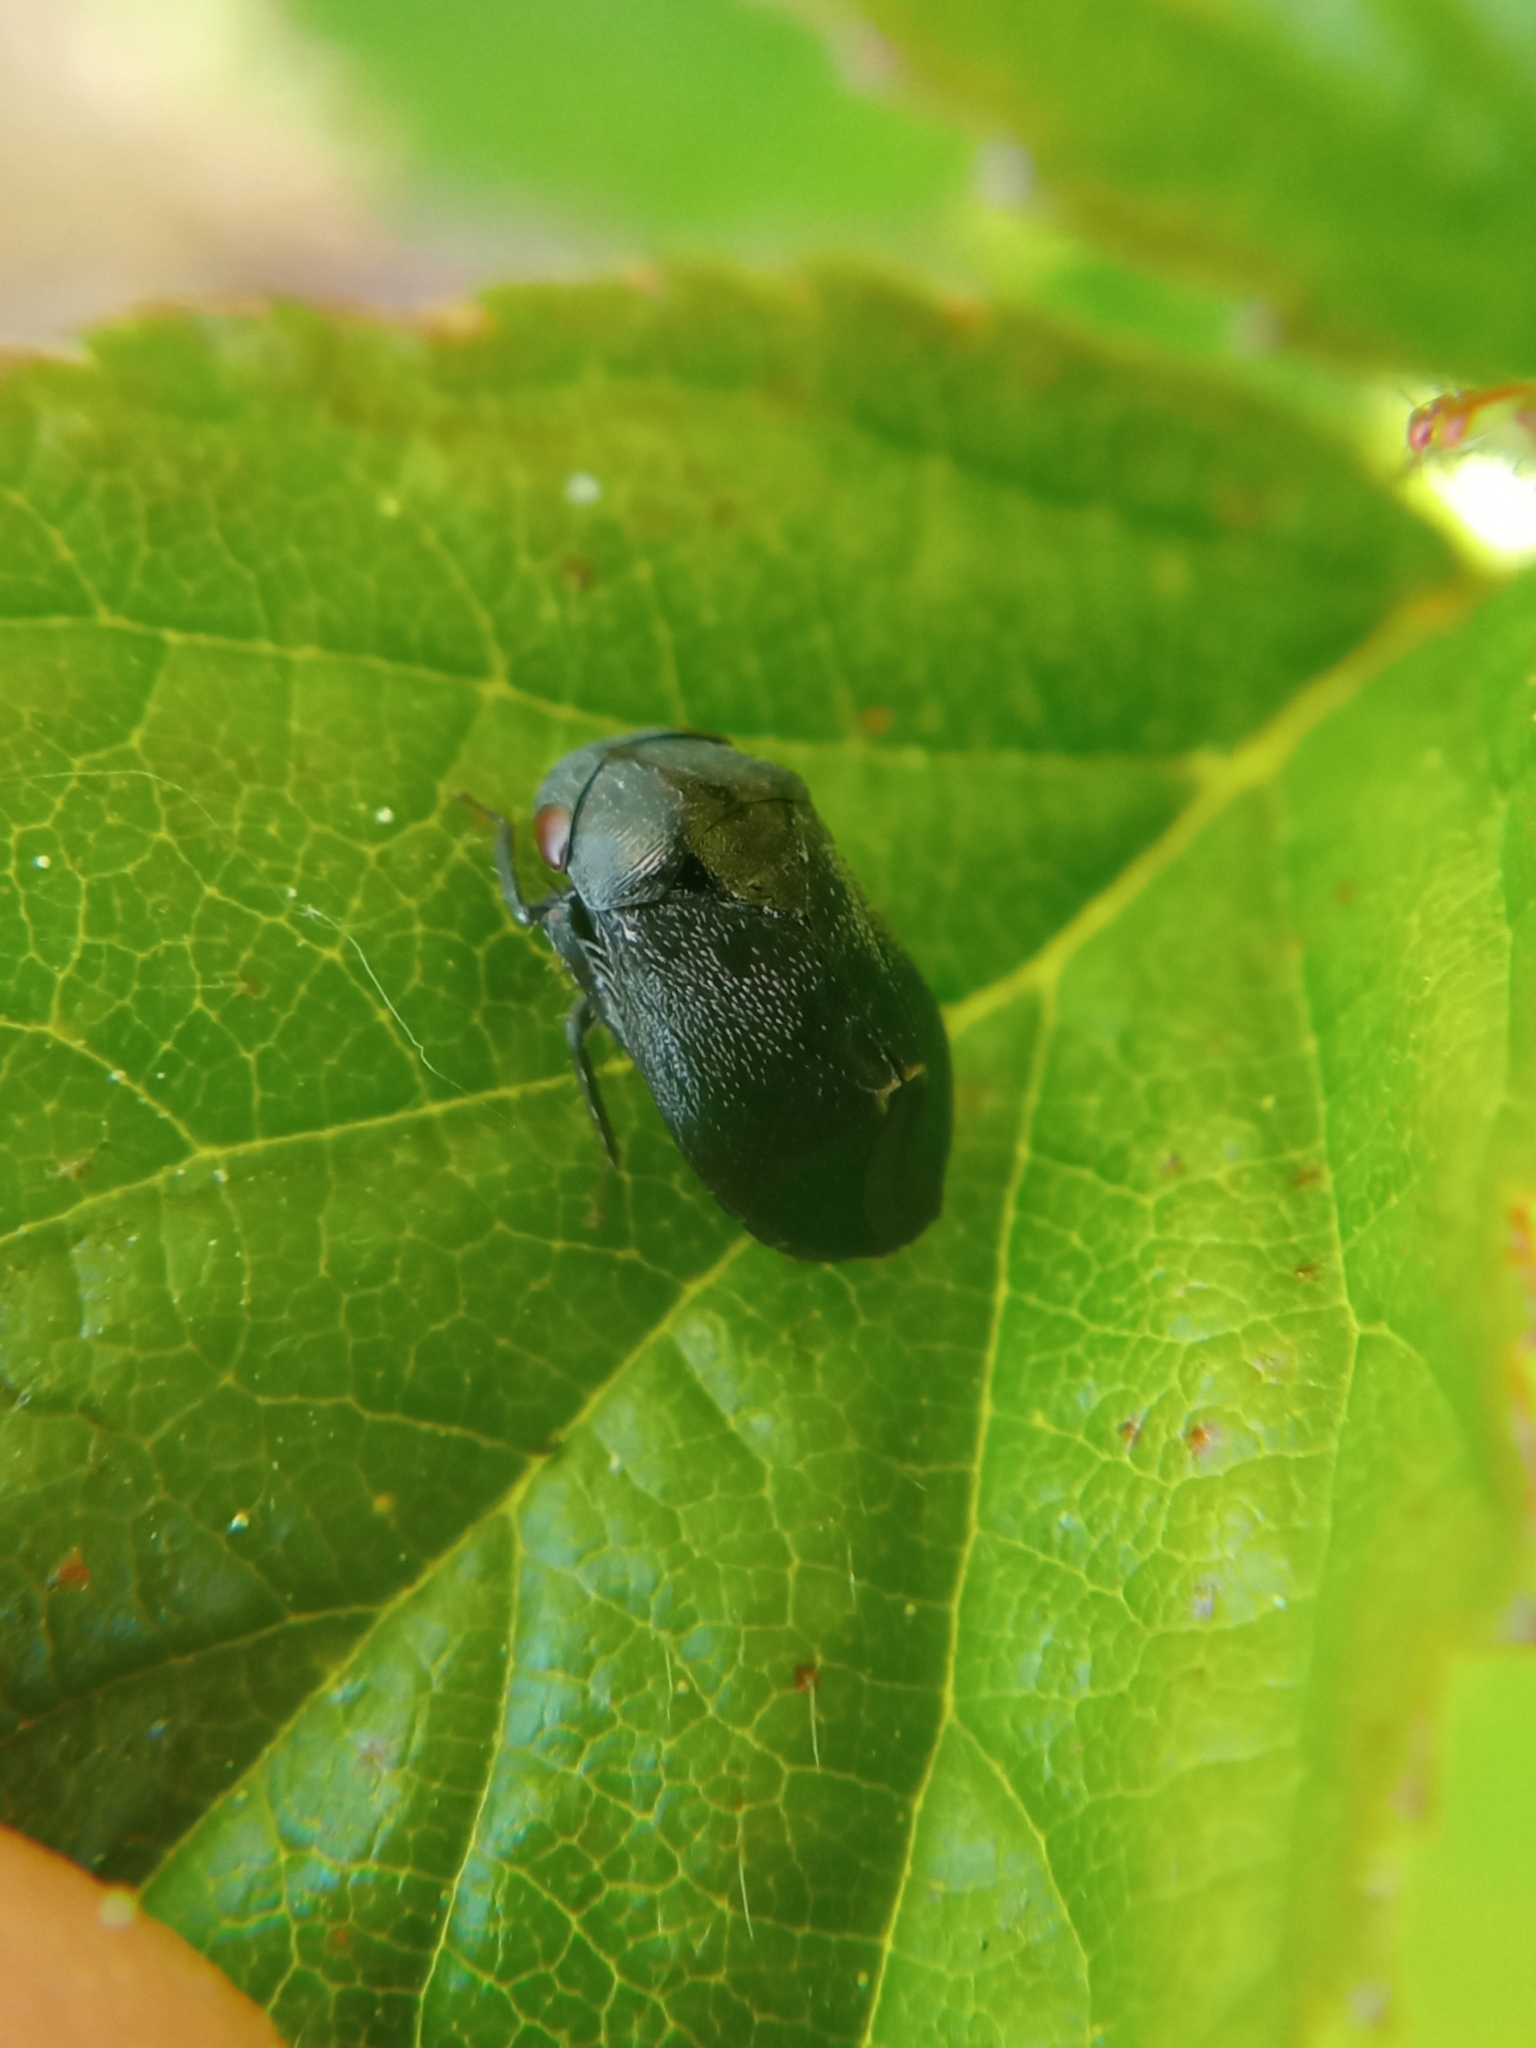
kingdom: Animalia
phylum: Arthropoda
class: Insecta
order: Hemiptera
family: Cicadellidae
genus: Penthimia
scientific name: Penthimia nigra
